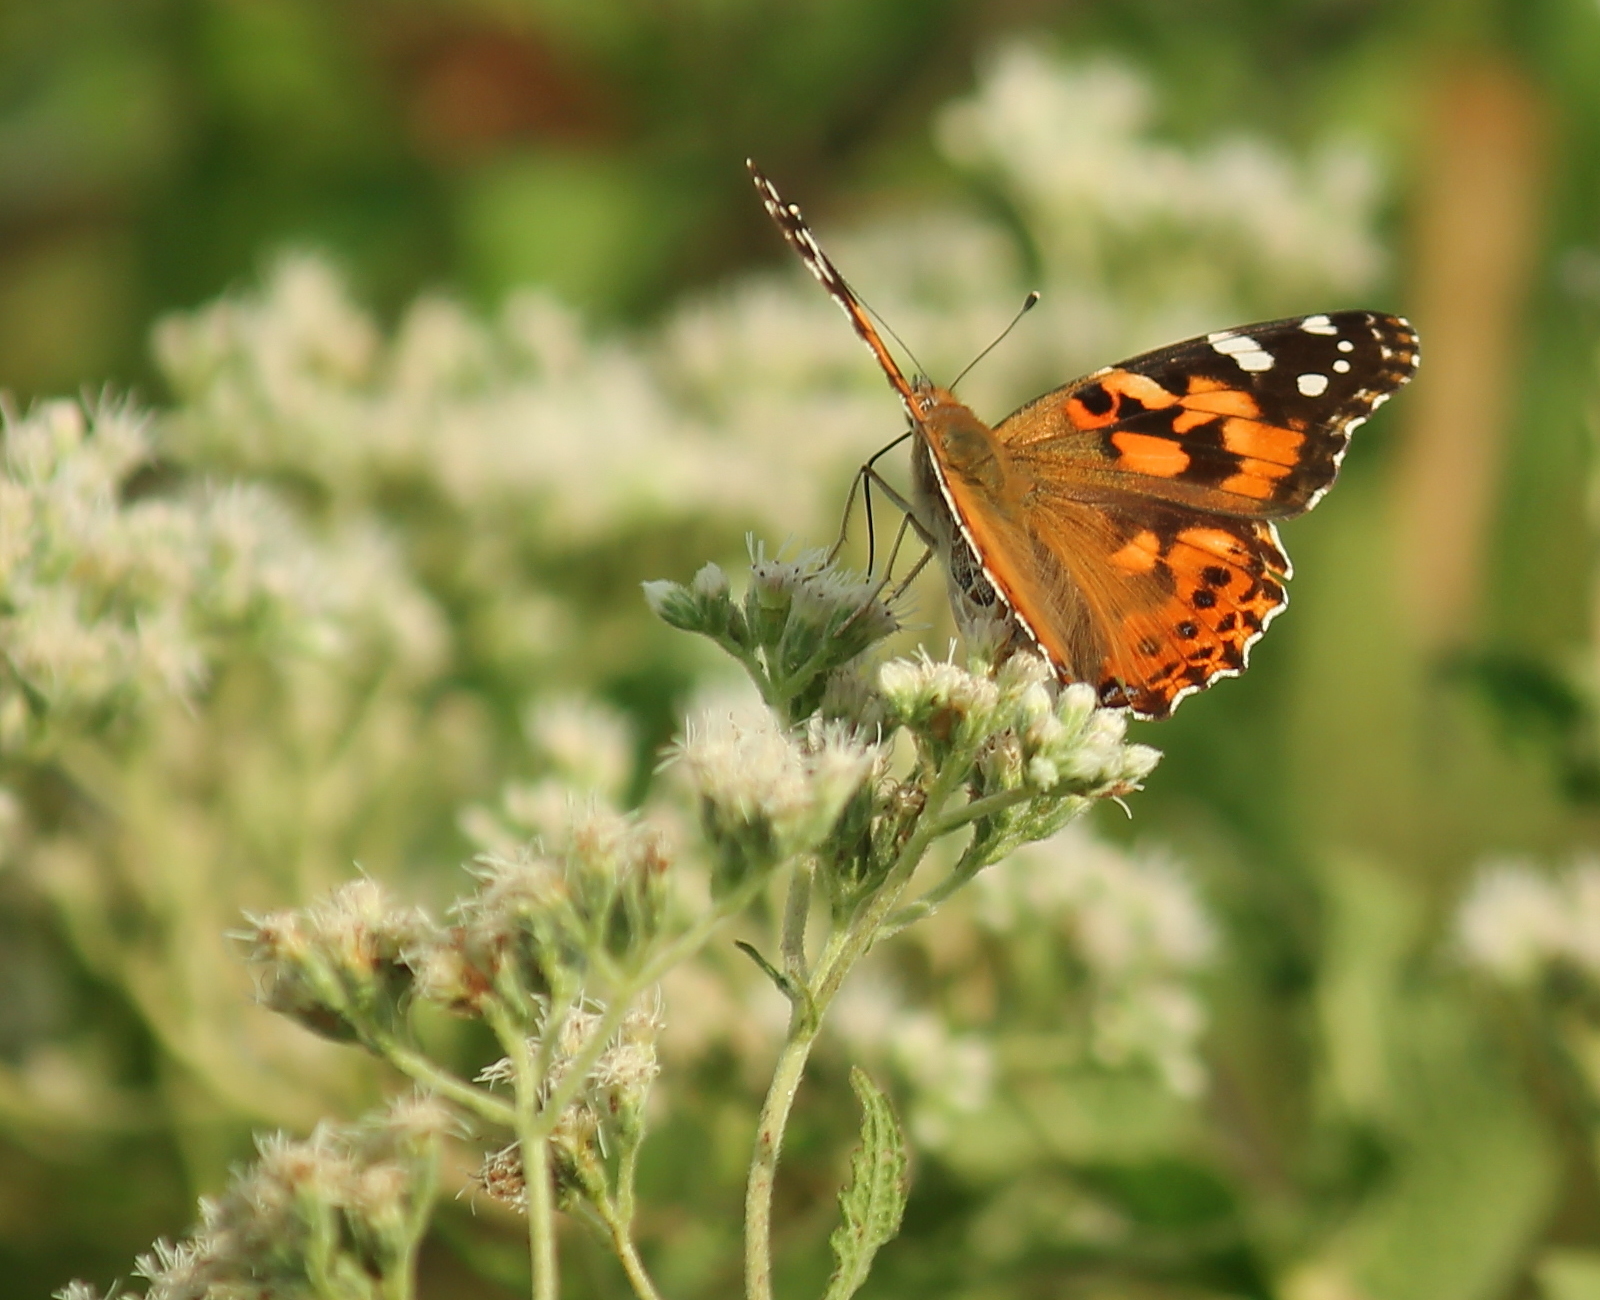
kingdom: Animalia
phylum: Arthropoda
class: Insecta
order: Lepidoptera
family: Nymphalidae
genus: Vanessa
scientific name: Vanessa cardui
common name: Painted lady
